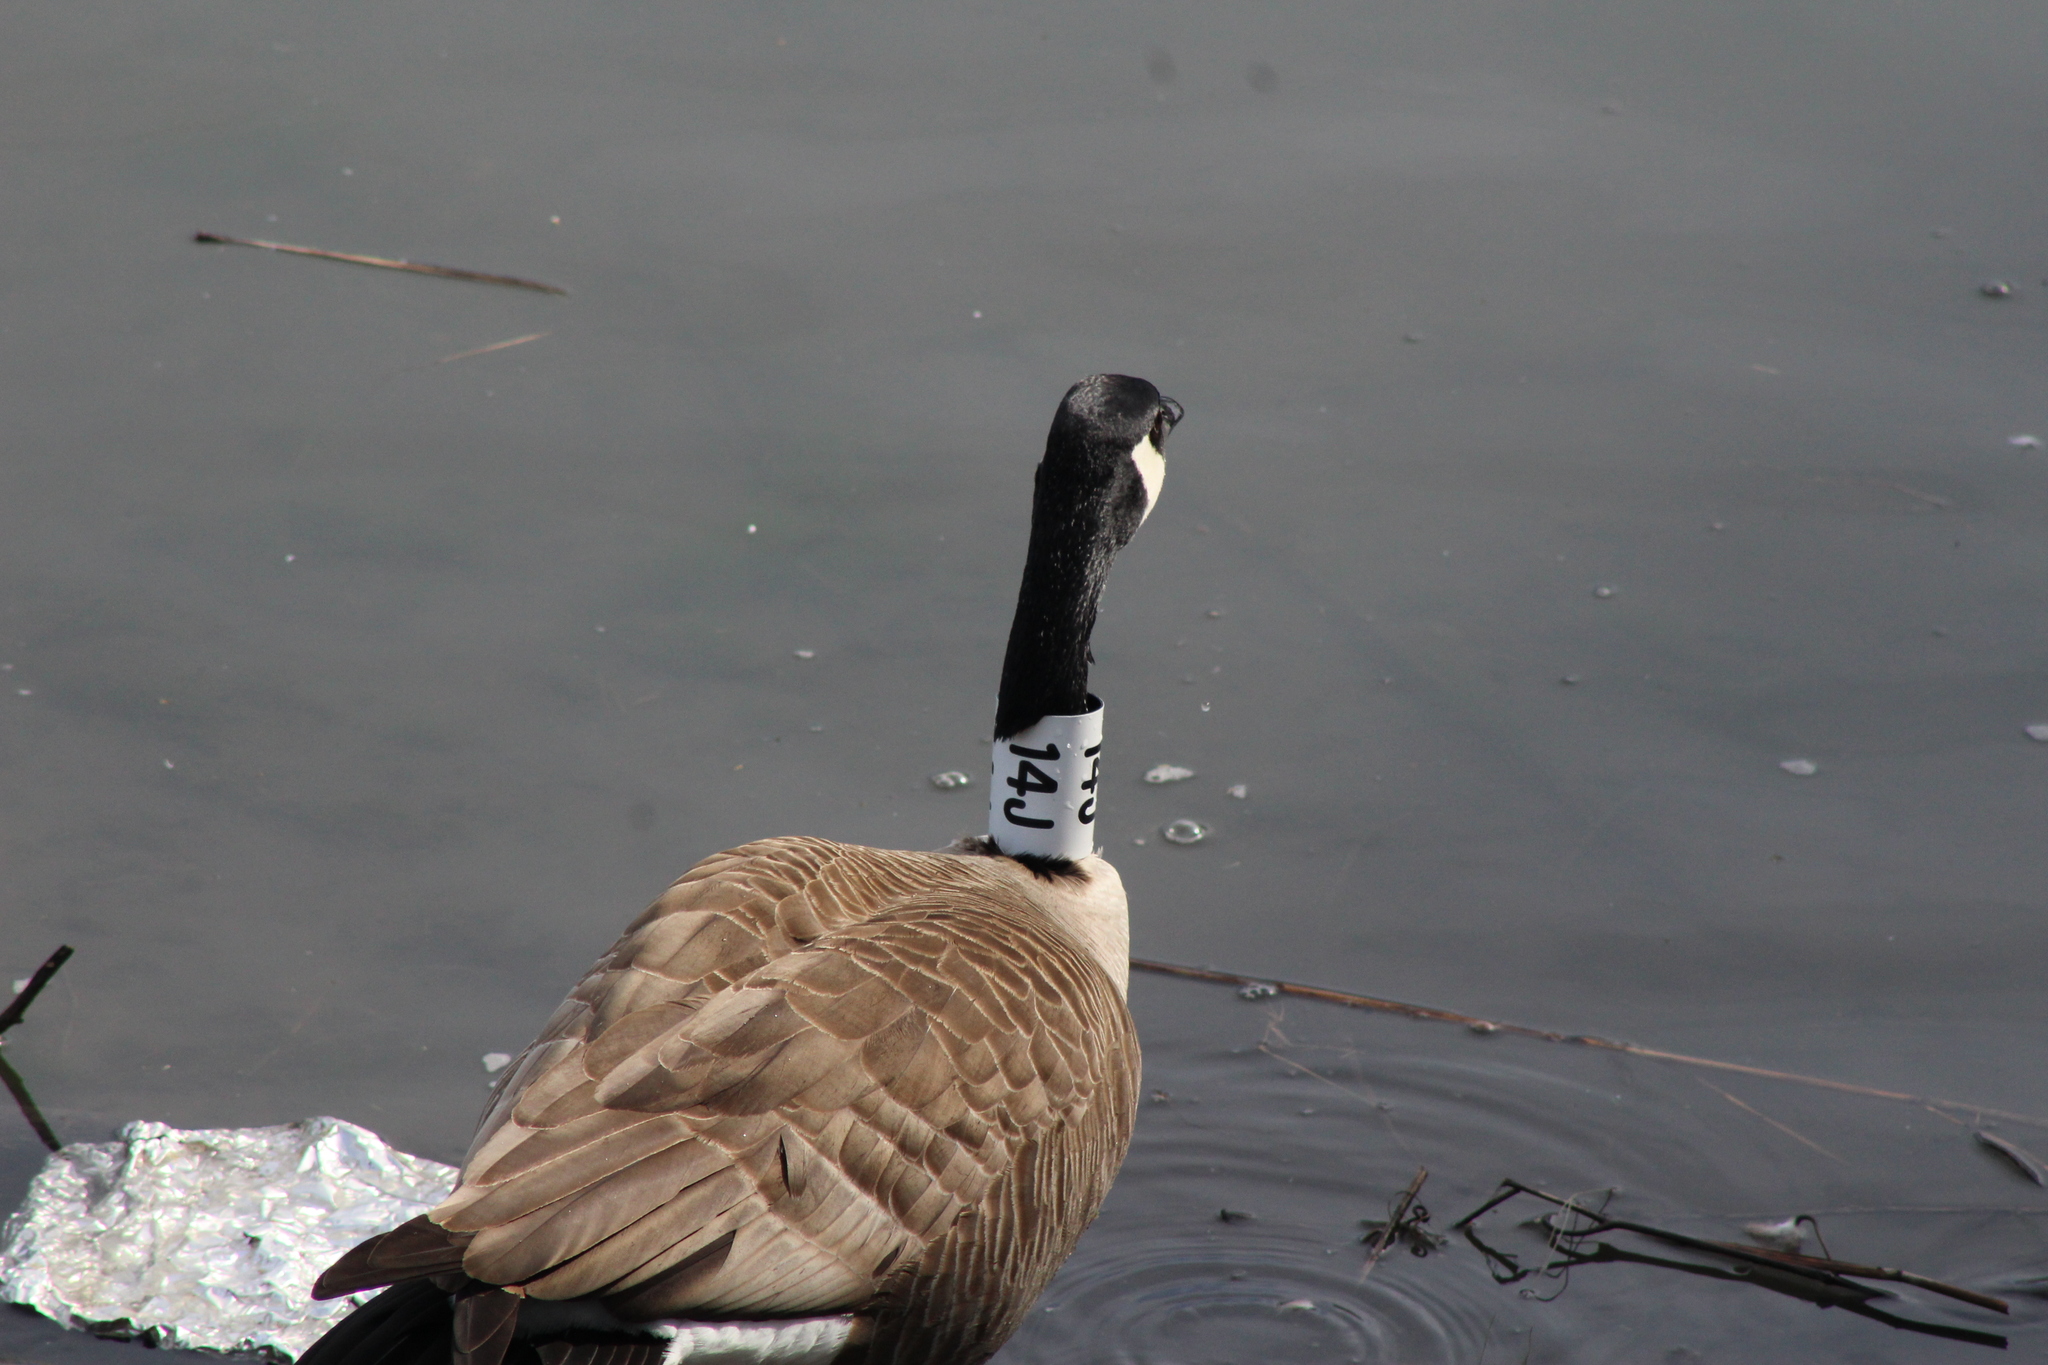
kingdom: Animalia
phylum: Chordata
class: Aves
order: Anseriformes
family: Anatidae
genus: Branta
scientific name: Branta canadensis
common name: Canada goose
